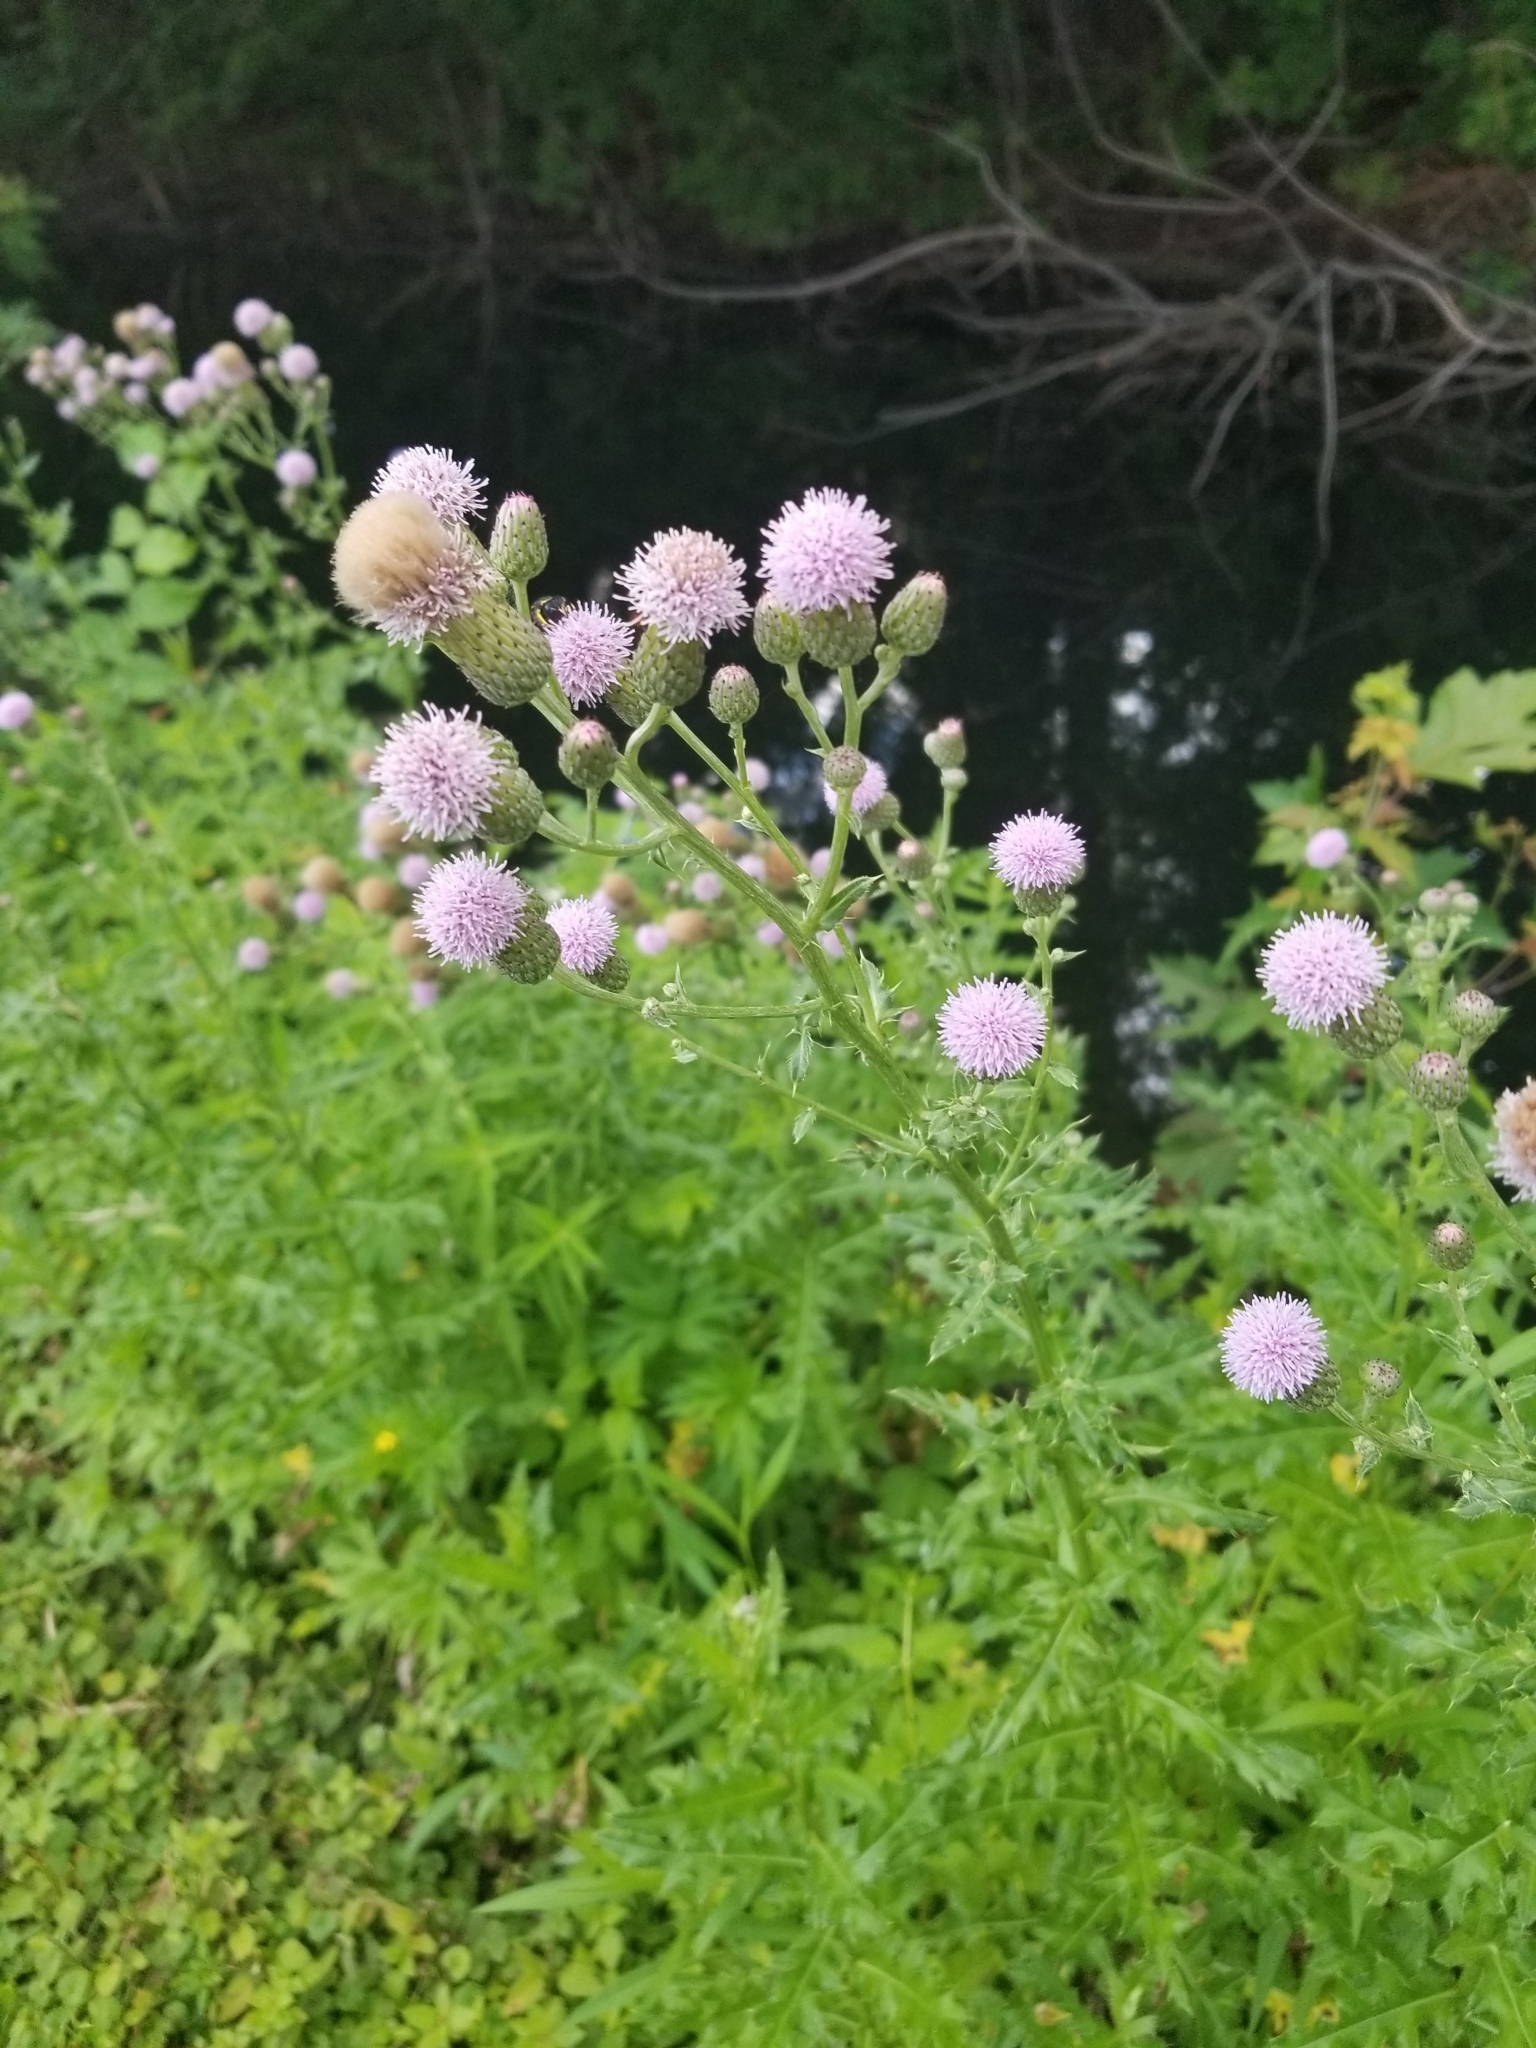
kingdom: Plantae
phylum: Tracheophyta
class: Magnoliopsida
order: Asterales
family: Asteraceae
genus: Cirsium
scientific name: Cirsium arvense
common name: Creeping thistle
